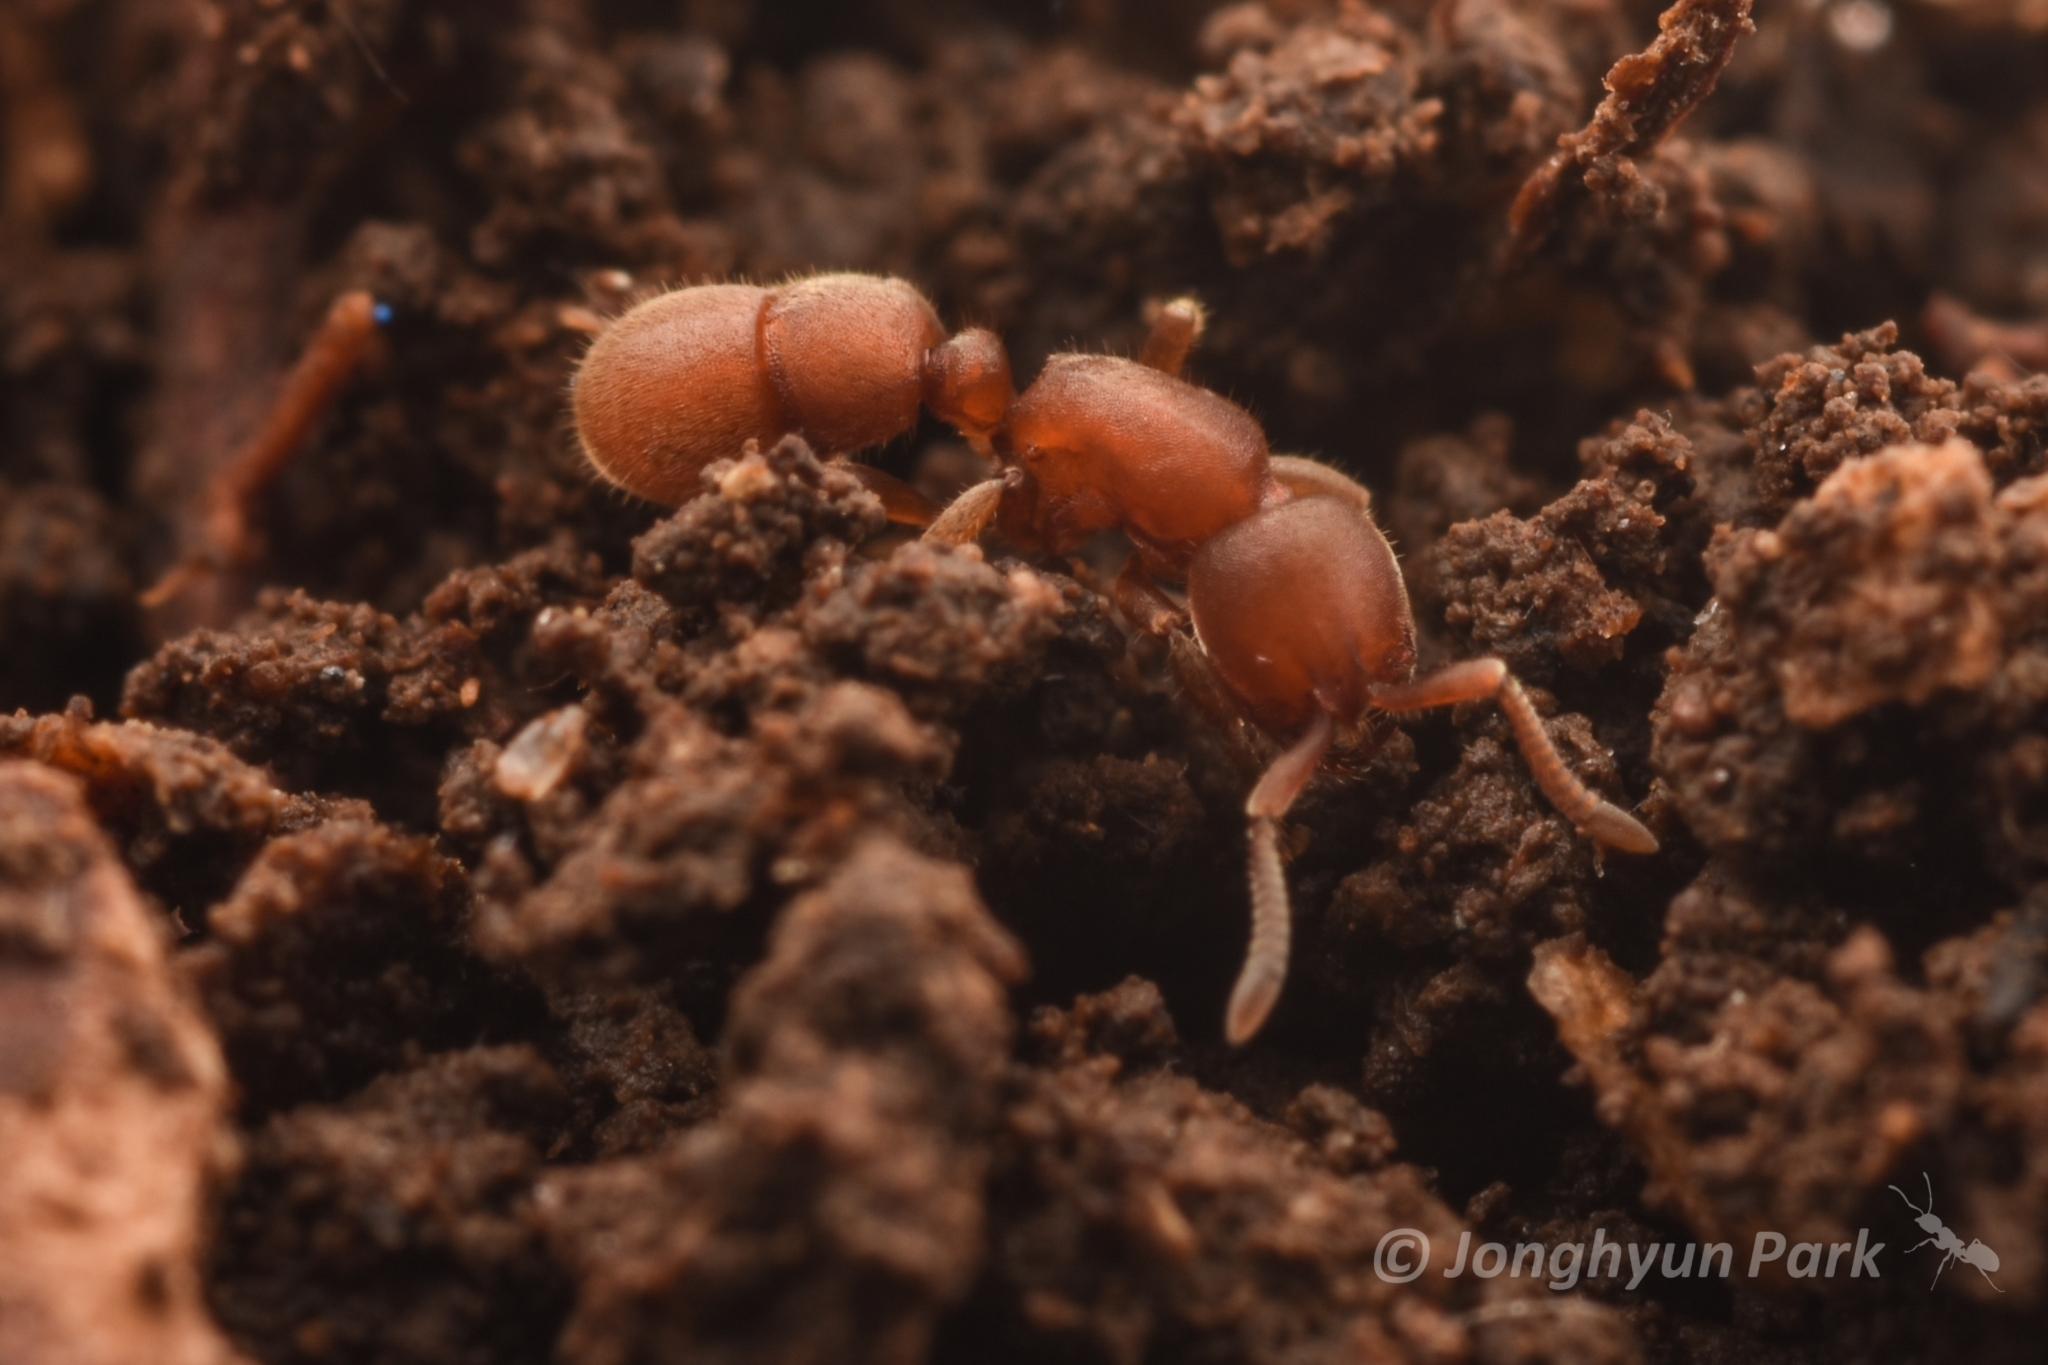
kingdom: Animalia
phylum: Arthropoda
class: Insecta
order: Hymenoptera
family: Formicidae
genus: Proceratium
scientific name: Proceratium itoi
